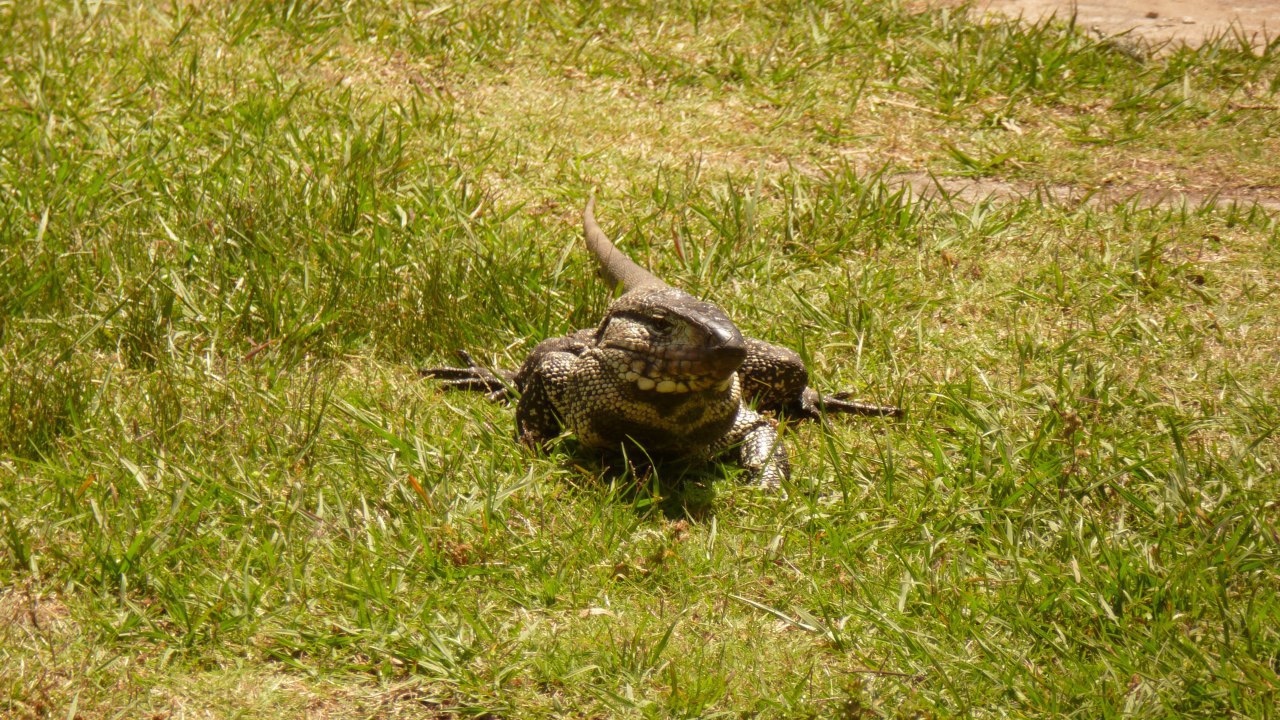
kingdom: Animalia
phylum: Chordata
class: Squamata
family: Teiidae
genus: Salvator
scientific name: Salvator merianae
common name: Argentine black and white tegu
